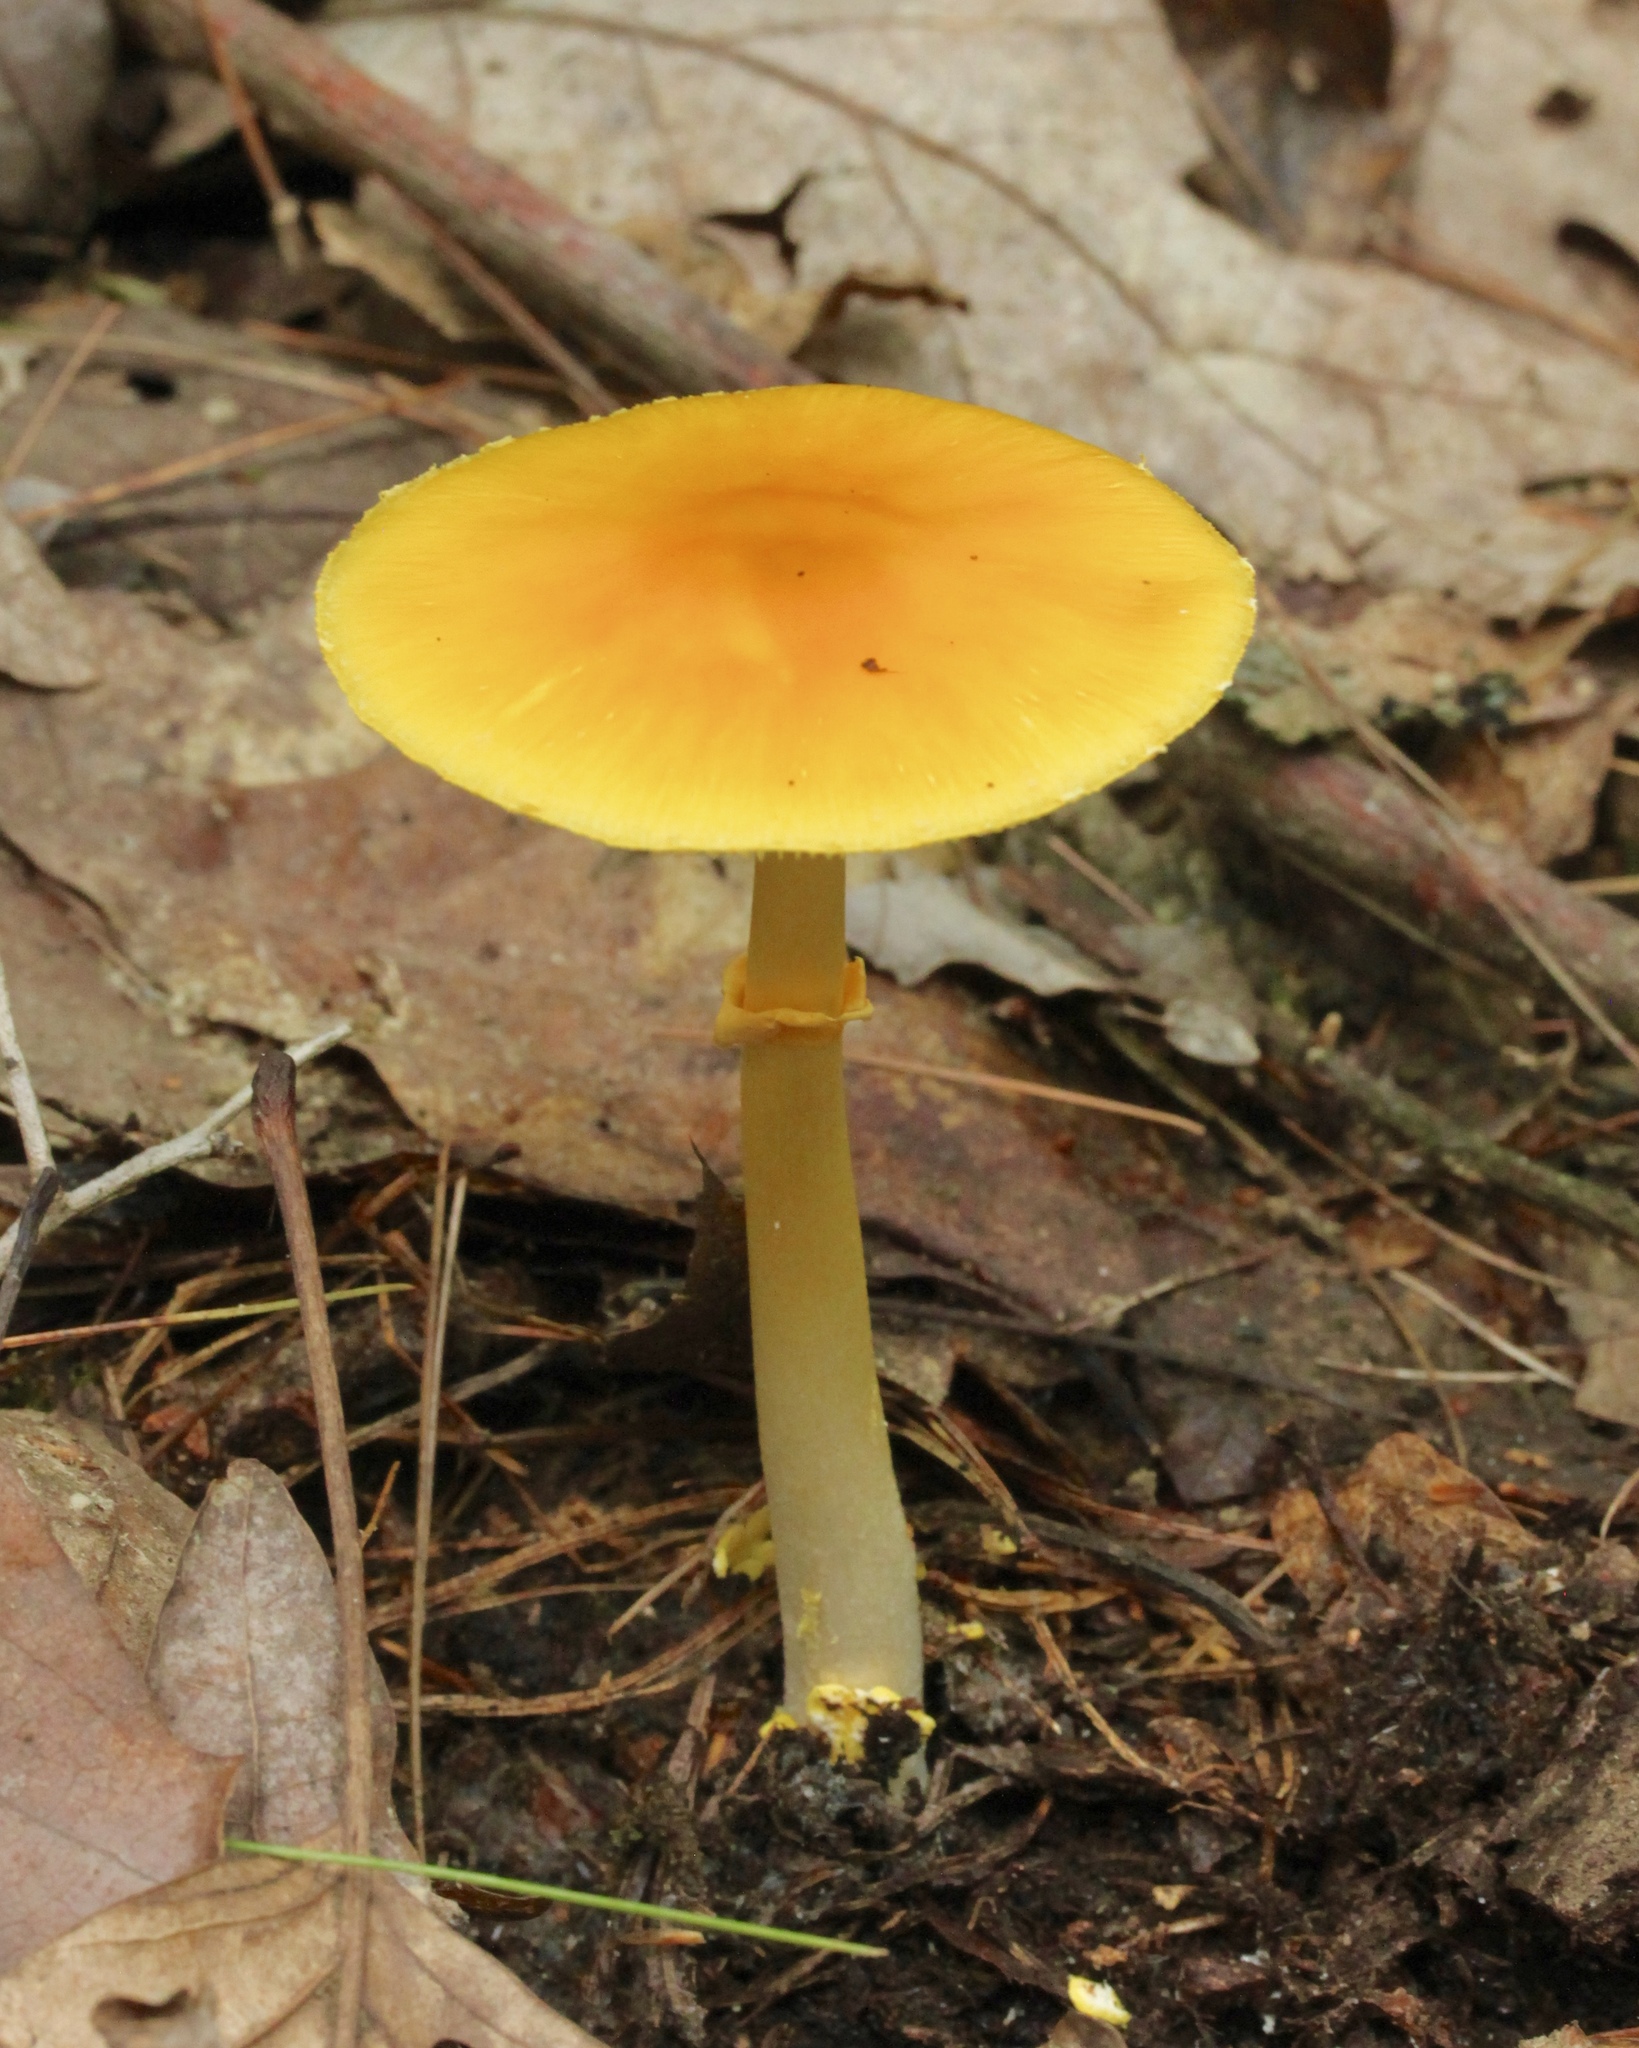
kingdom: Fungi
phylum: Basidiomycota
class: Agaricomycetes
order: Agaricales
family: Amanitaceae
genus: Amanita
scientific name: Amanita flavoconia
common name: Yellow patches
